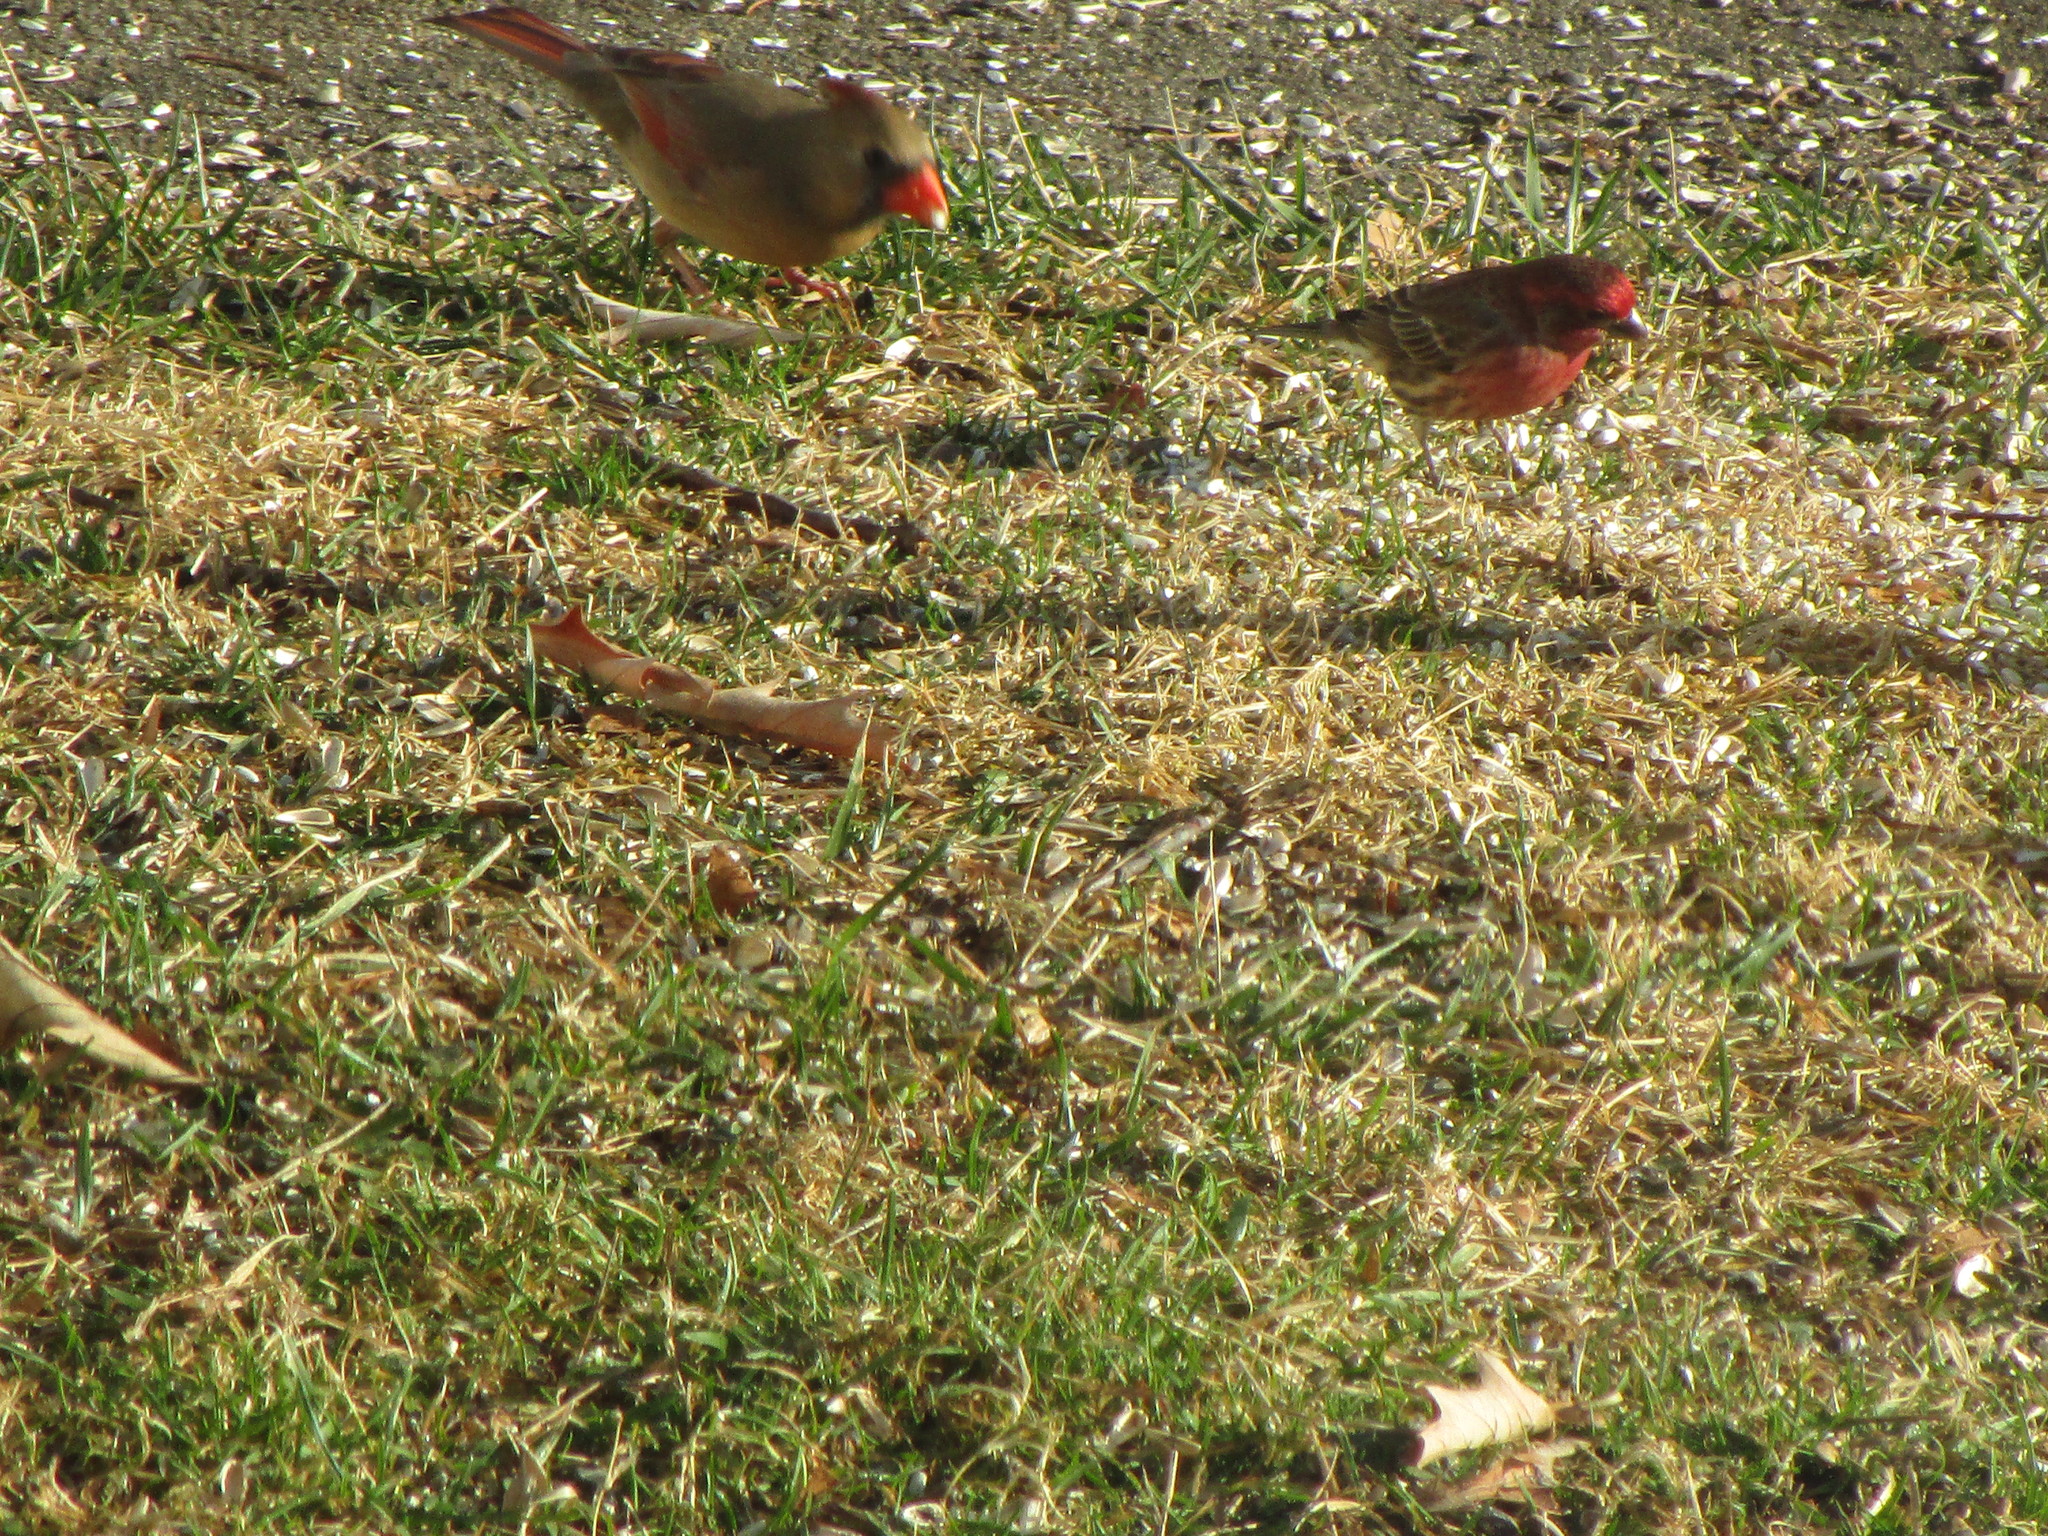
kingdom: Animalia
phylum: Chordata
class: Aves
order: Passeriformes
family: Fringillidae
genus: Haemorhous
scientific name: Haemorhous mexicanus
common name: House finch
